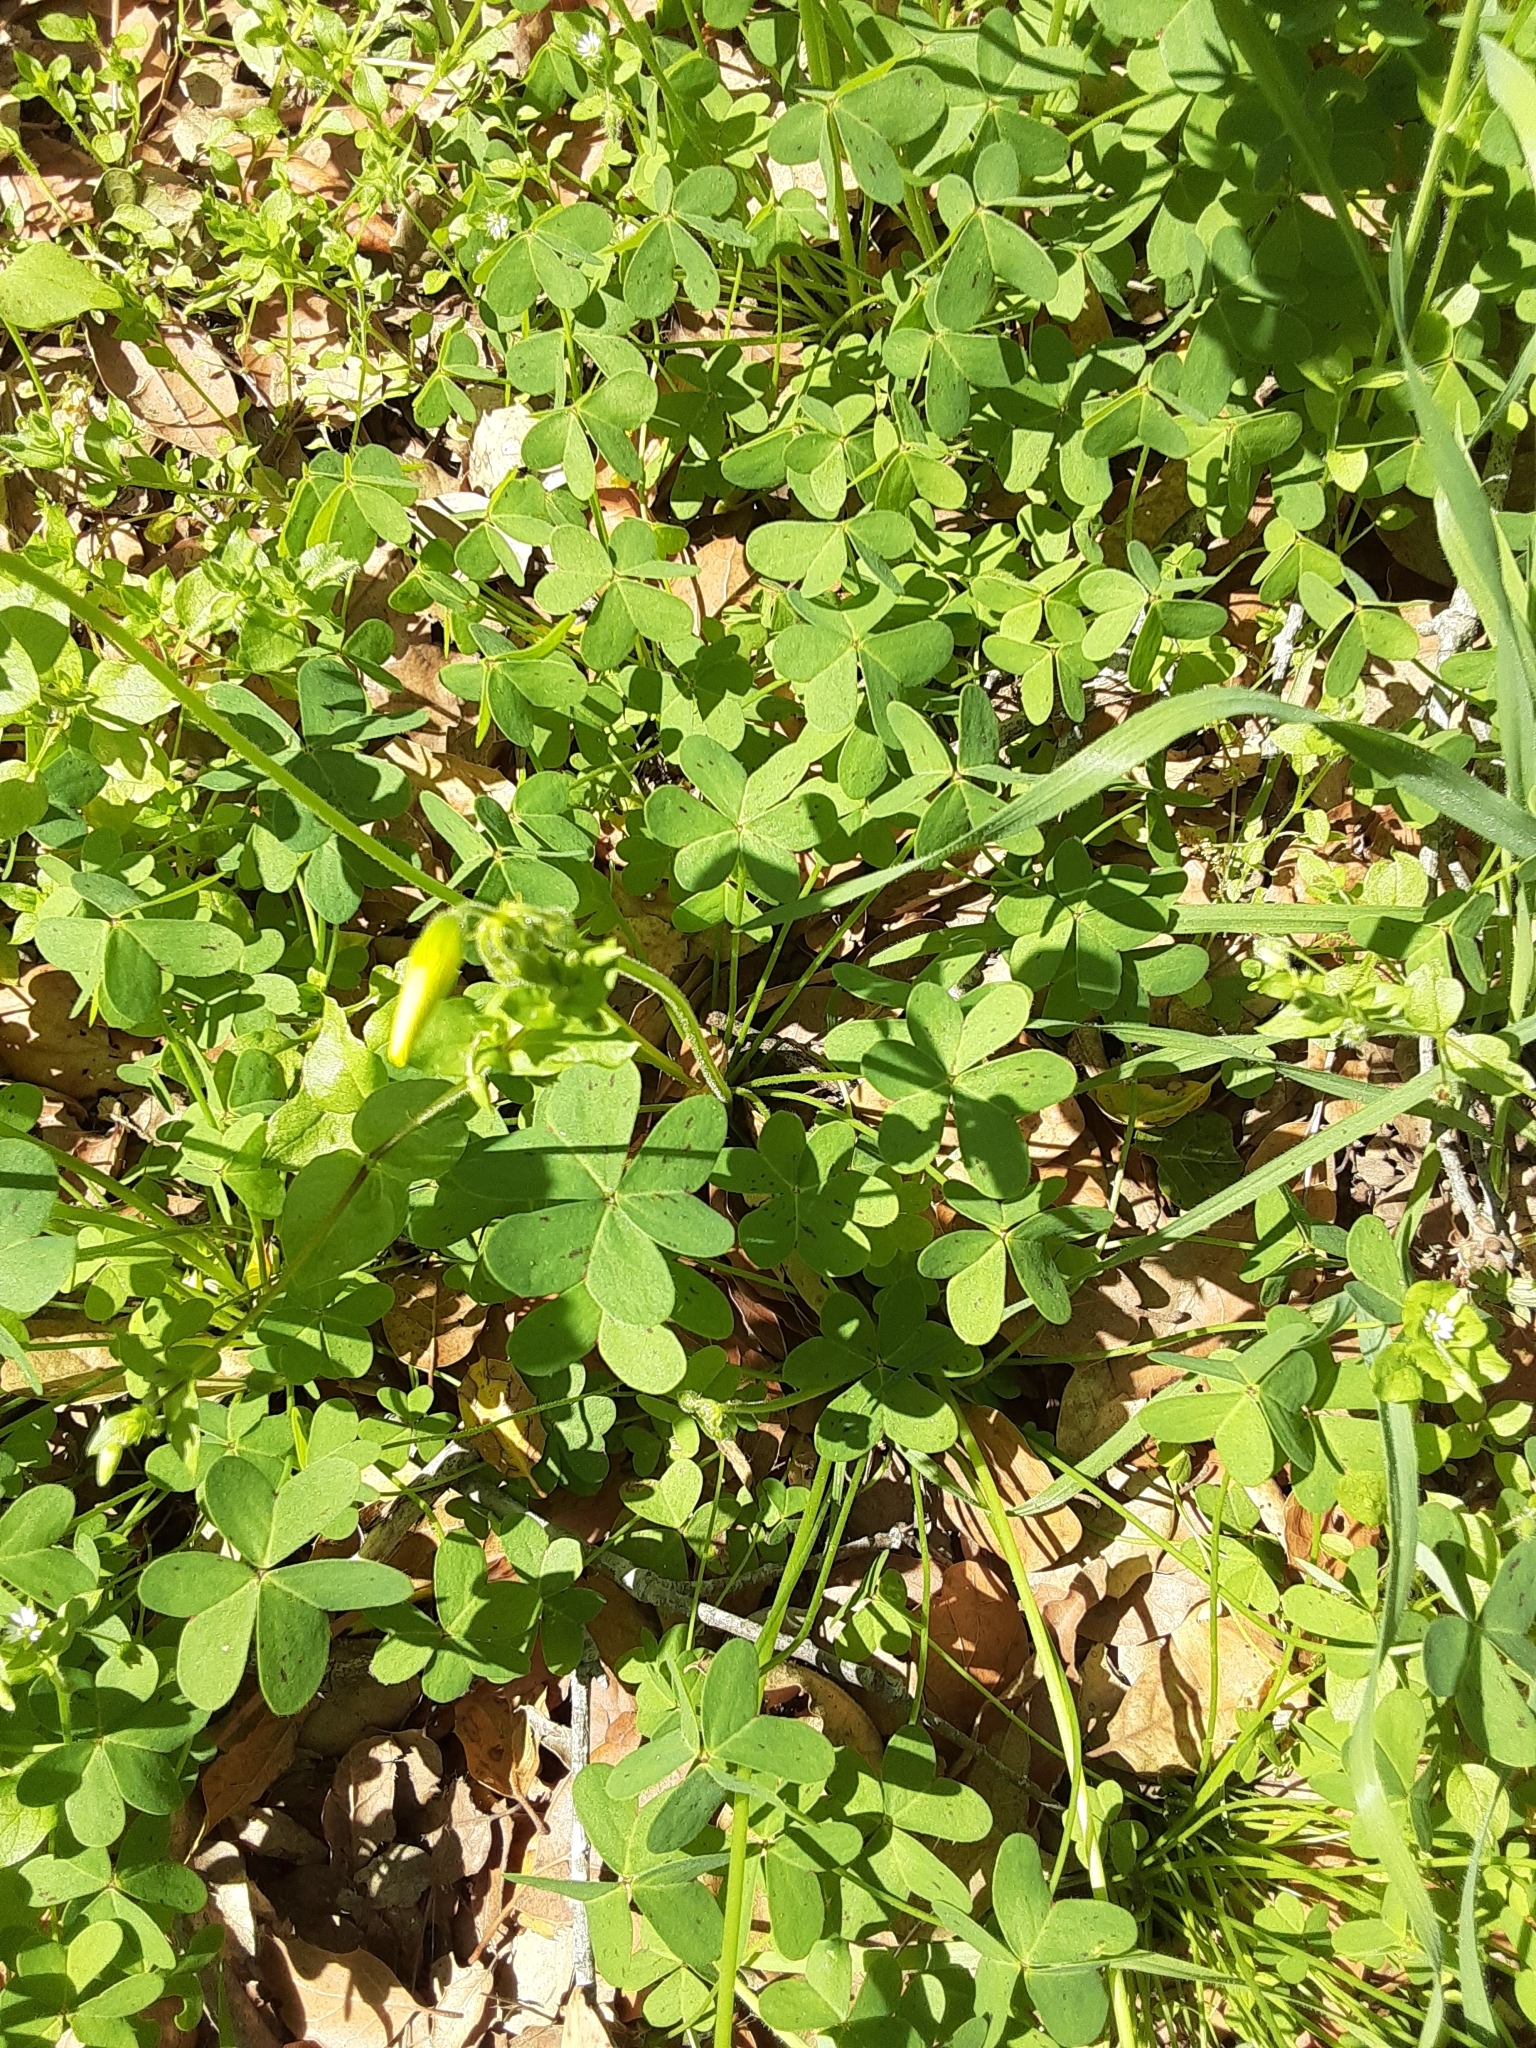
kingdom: Plantae
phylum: Tracheophyta
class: Magnoliopsida
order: Oxalidales
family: Oxalidaceae
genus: Oxalis
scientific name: Oxalis pes-caprae
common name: Bermuda-buttercup
